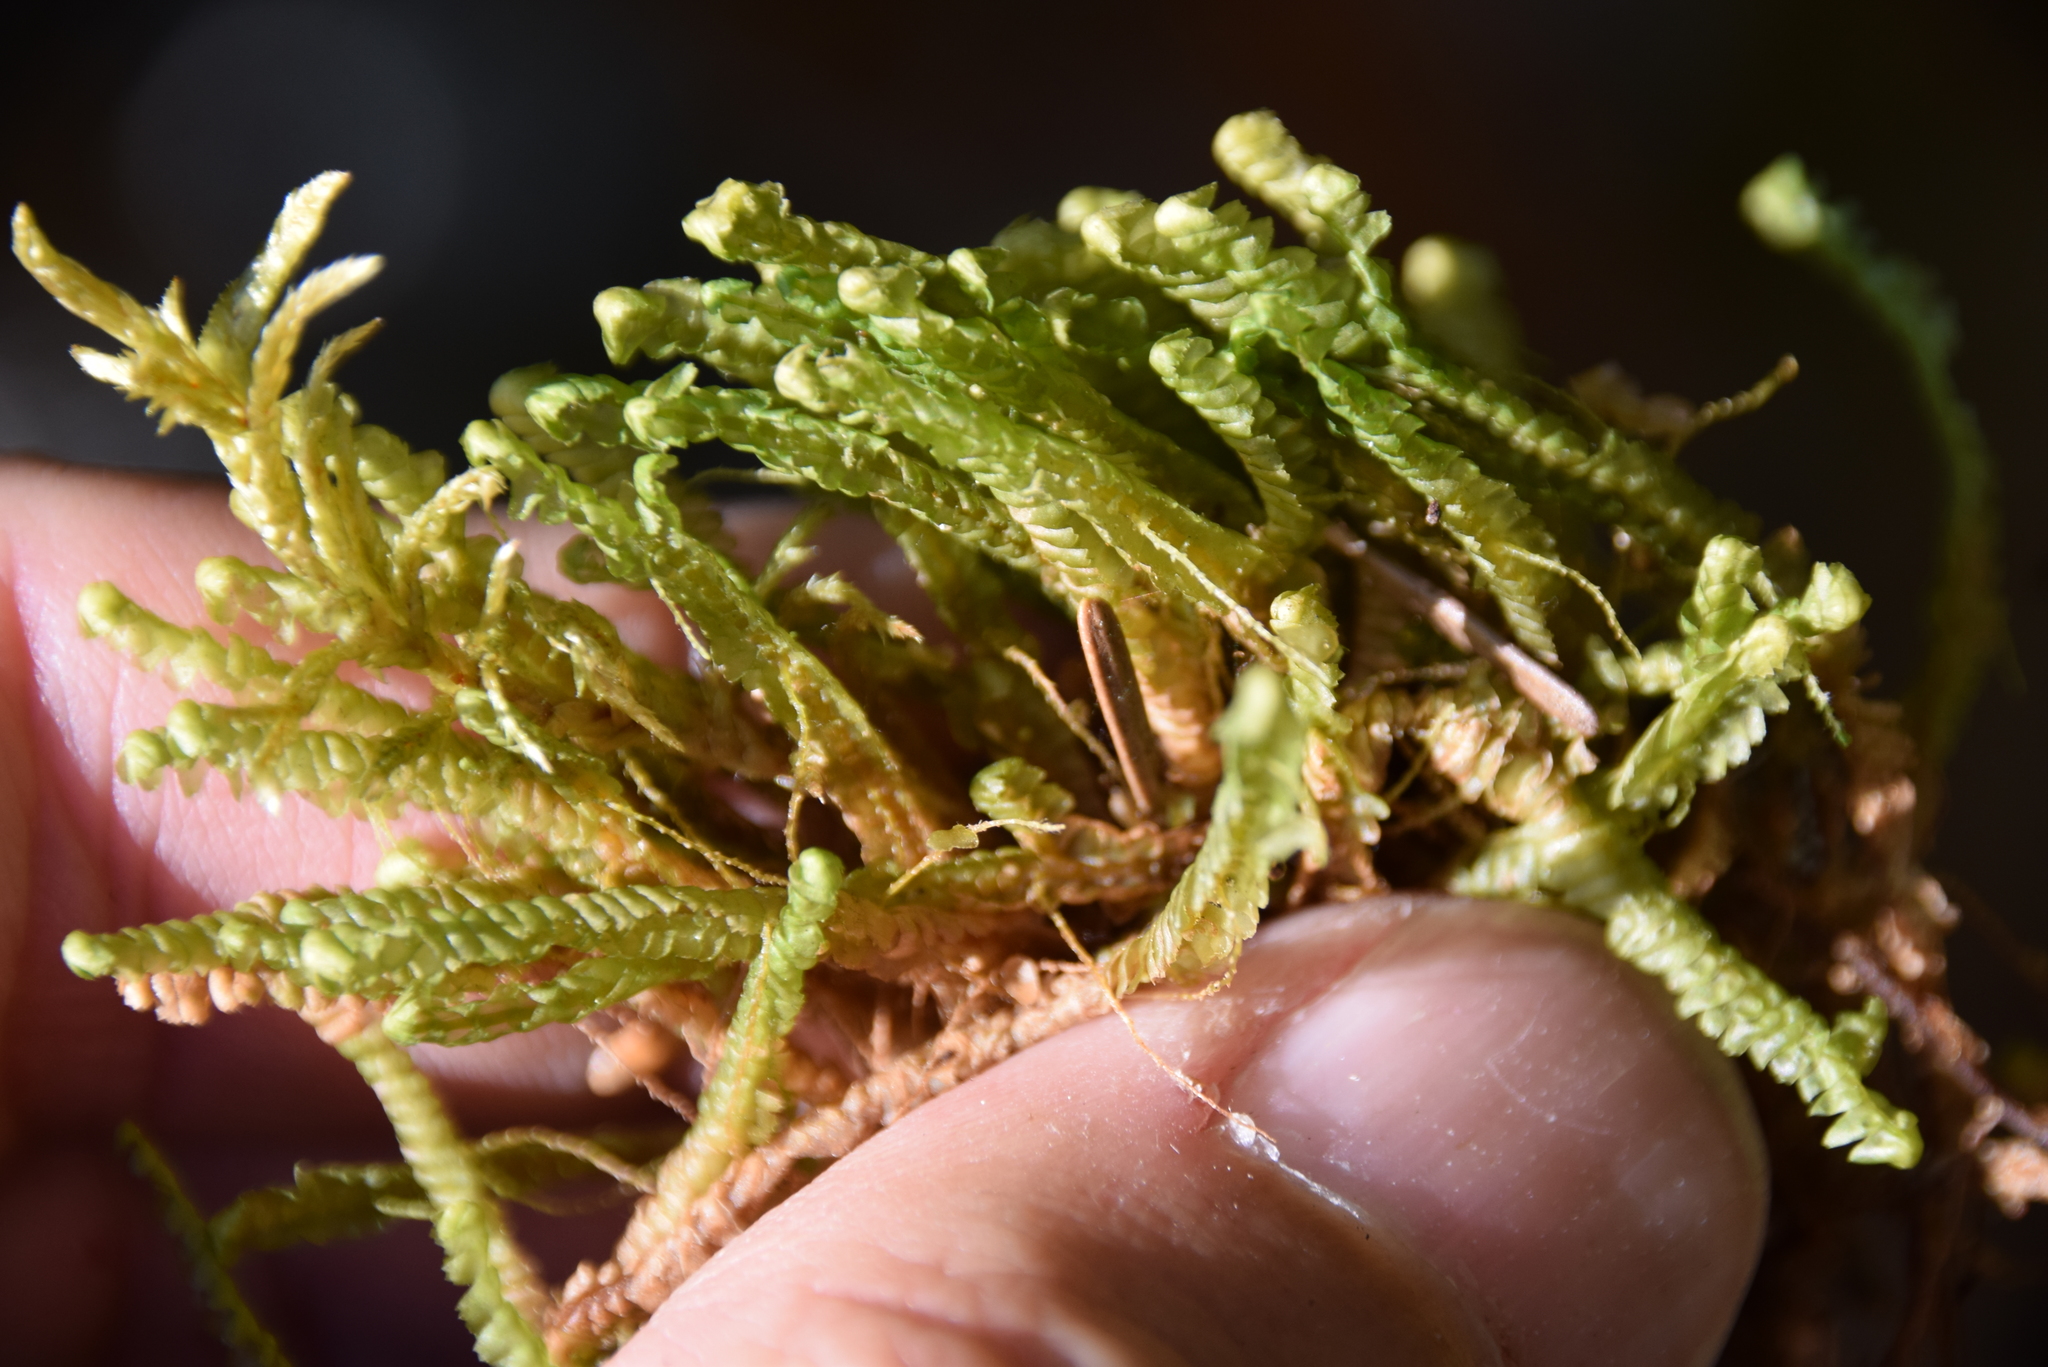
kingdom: Plantae
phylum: Marchantiophyta
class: Jungermanniopsida
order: Jungermanniales
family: Lepidoziaceae
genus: Bazzania
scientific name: Bazzania trilobata
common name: Three-lobed whipwort
